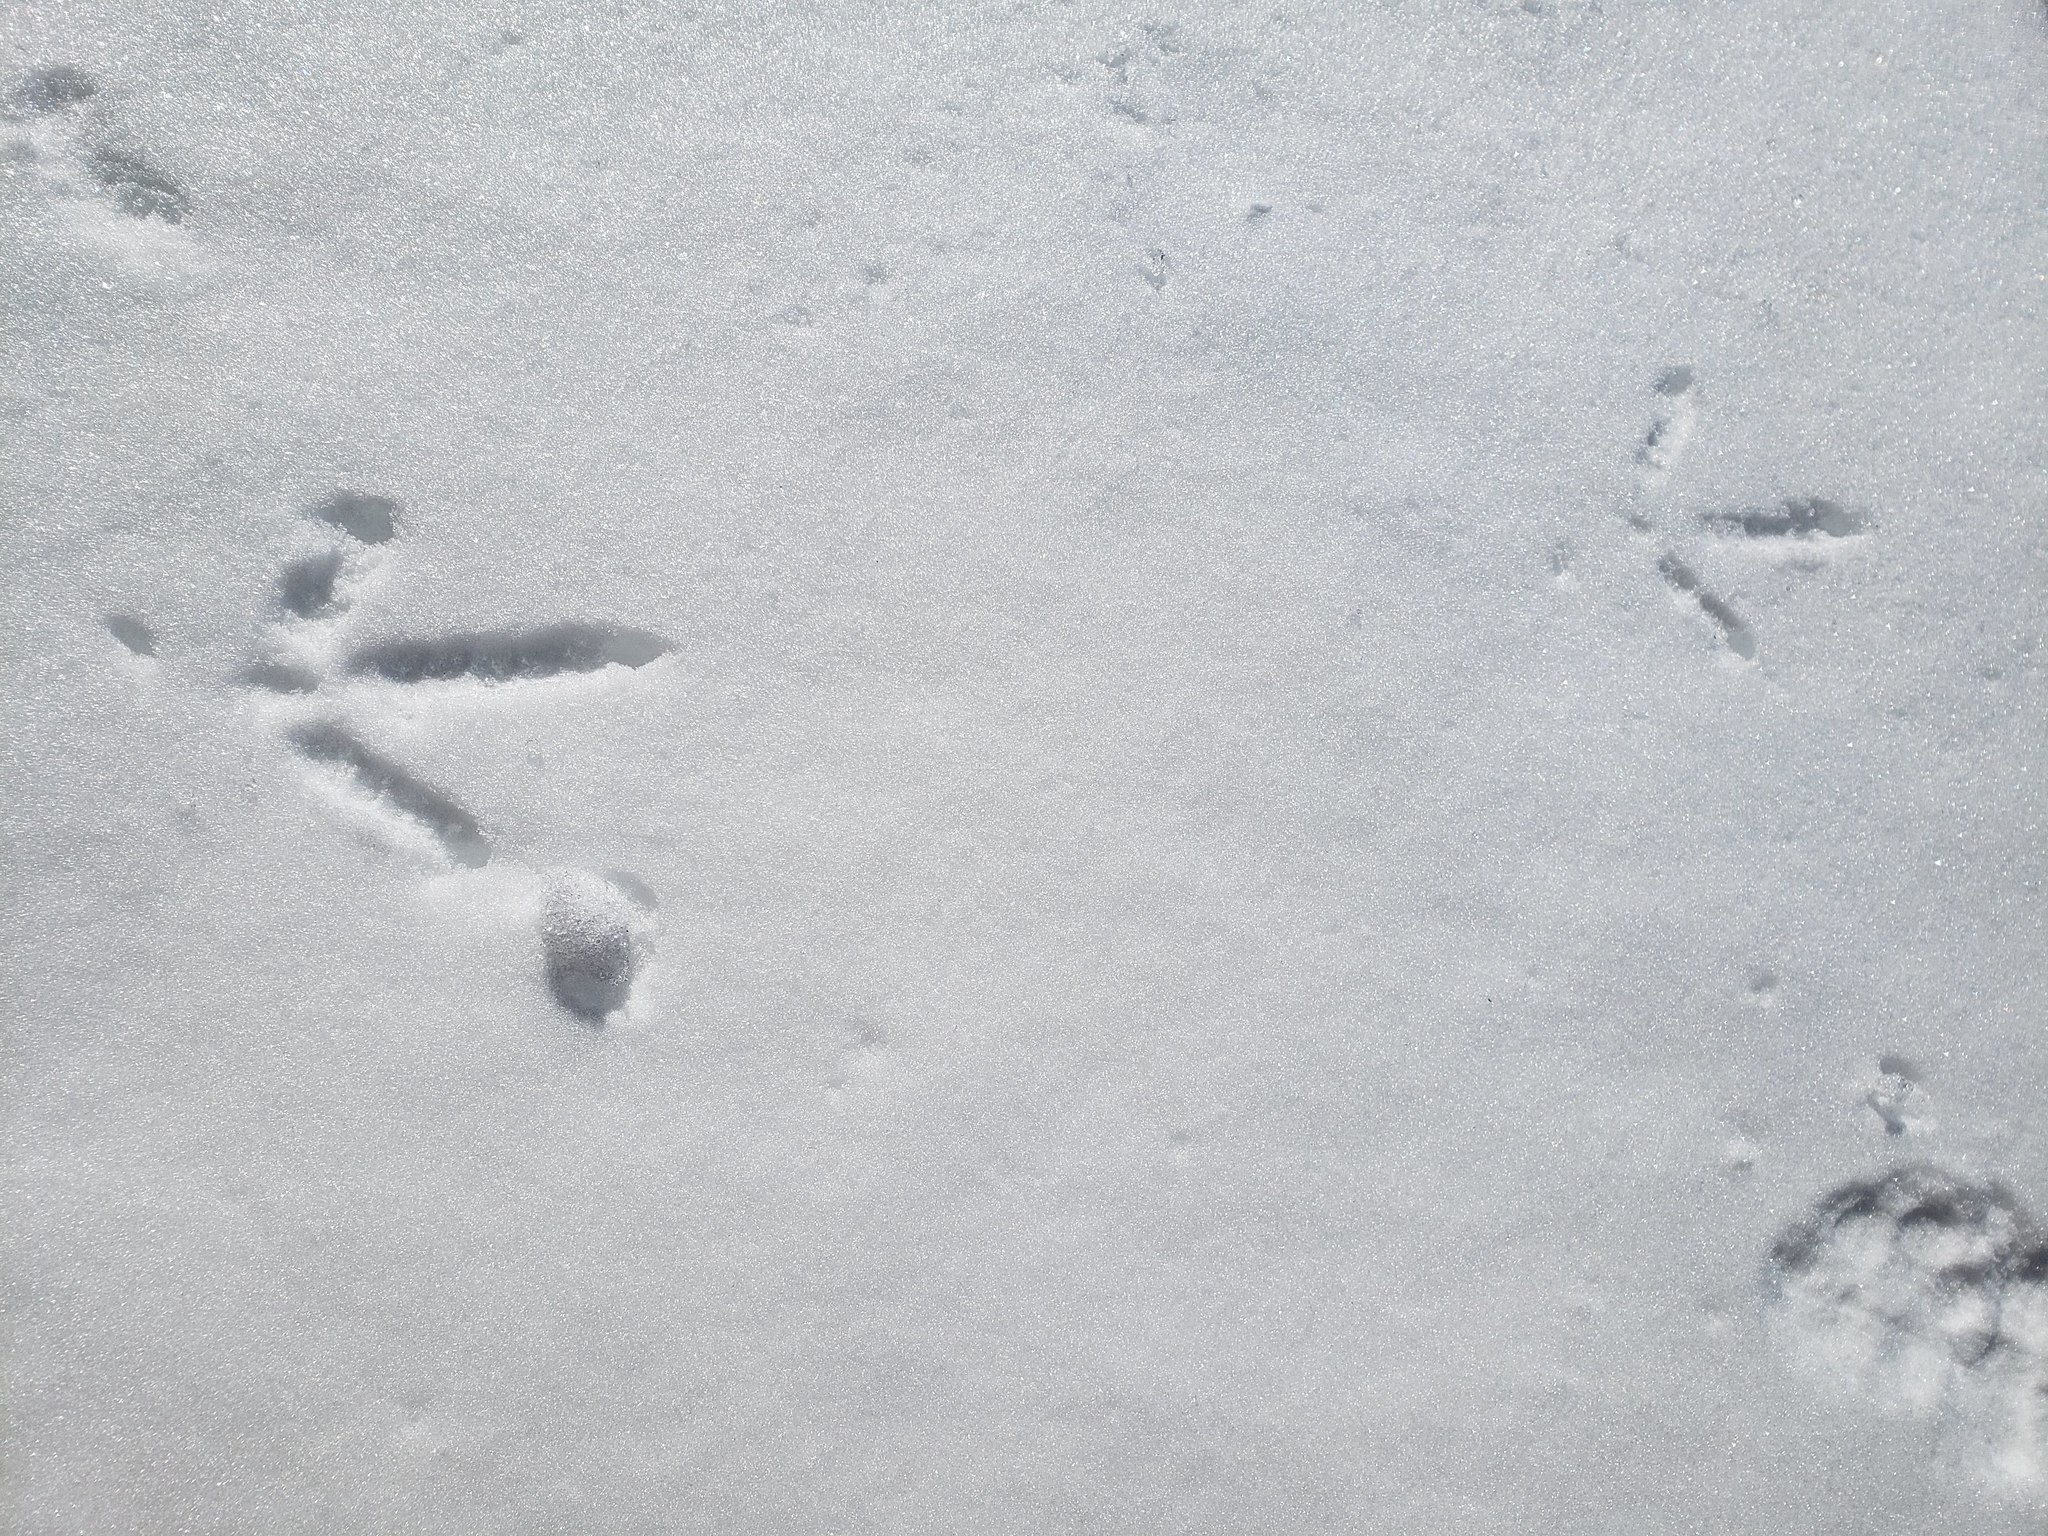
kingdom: Animalia
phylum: Chordata
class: Aves
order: Galliformes
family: Phasianidae
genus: Meleagris
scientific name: Meleagris gallopavo
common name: Wild turkey
